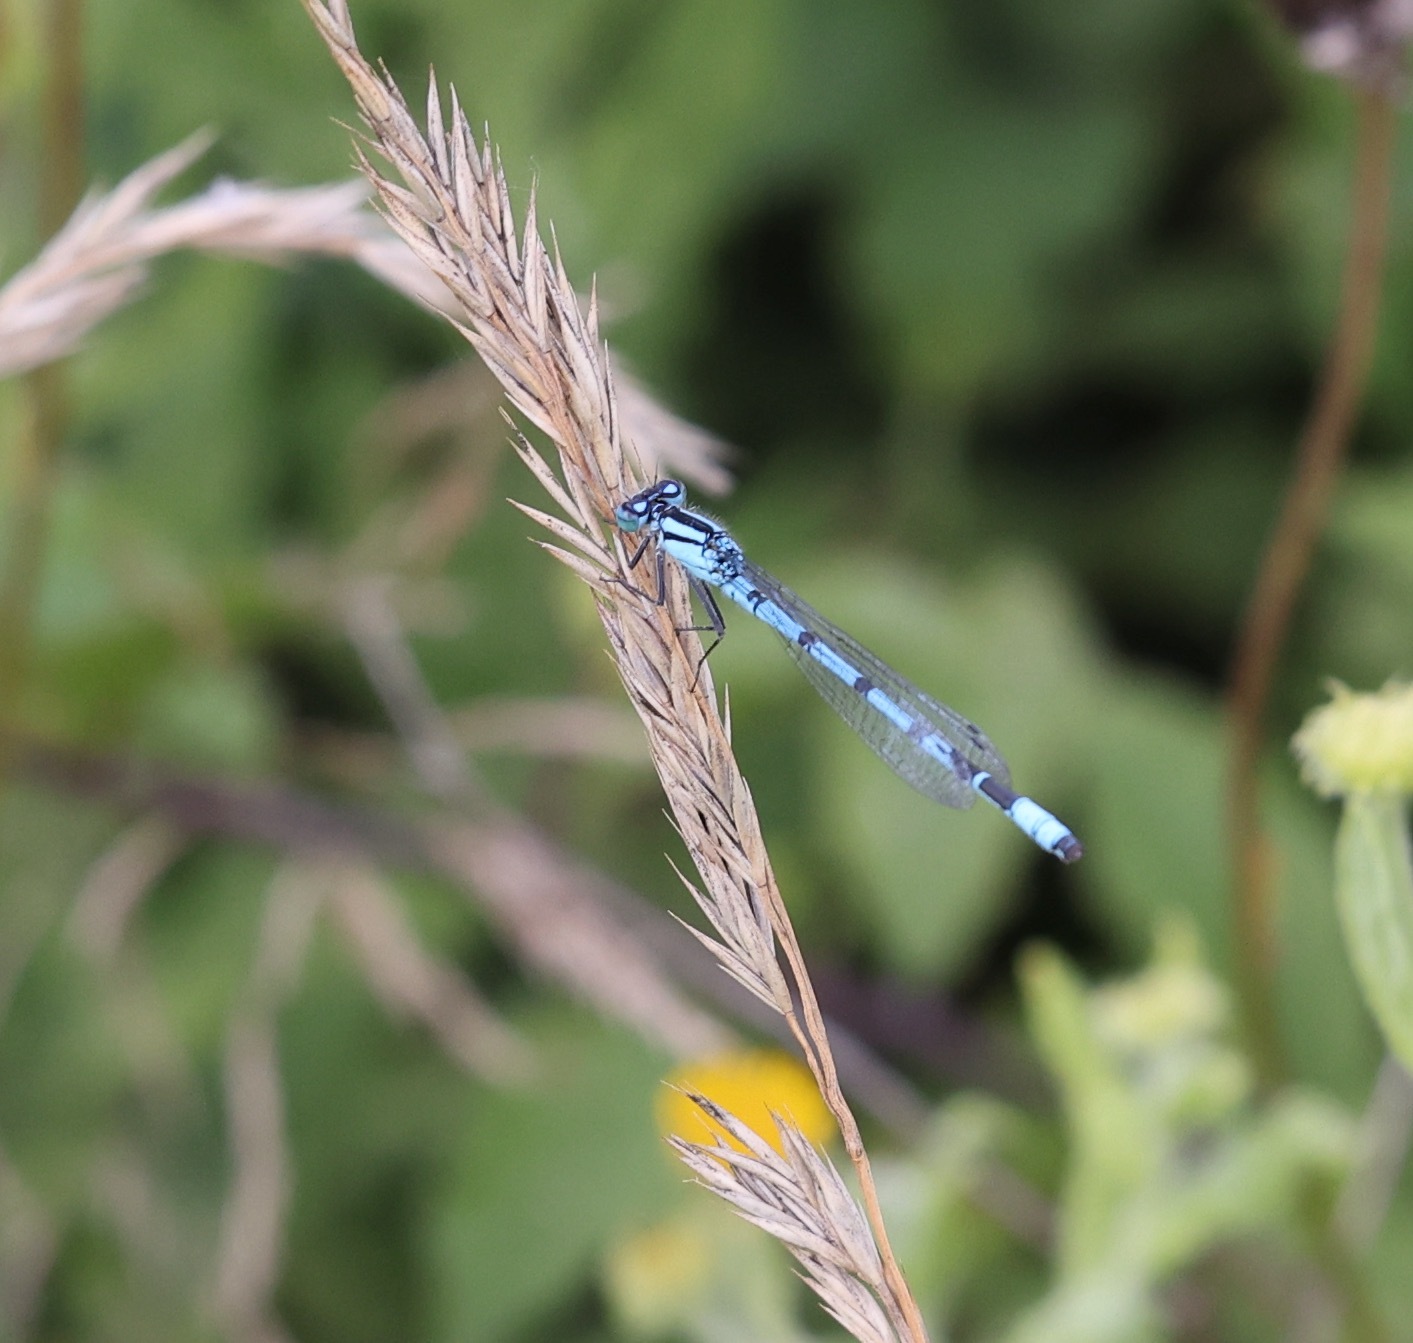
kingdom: Animalia
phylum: Arthropoda
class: Insecta
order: Odonata
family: Coenagrionidae
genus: Enallagma
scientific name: Enallagma cyathigerum
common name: Common blue damselfly
